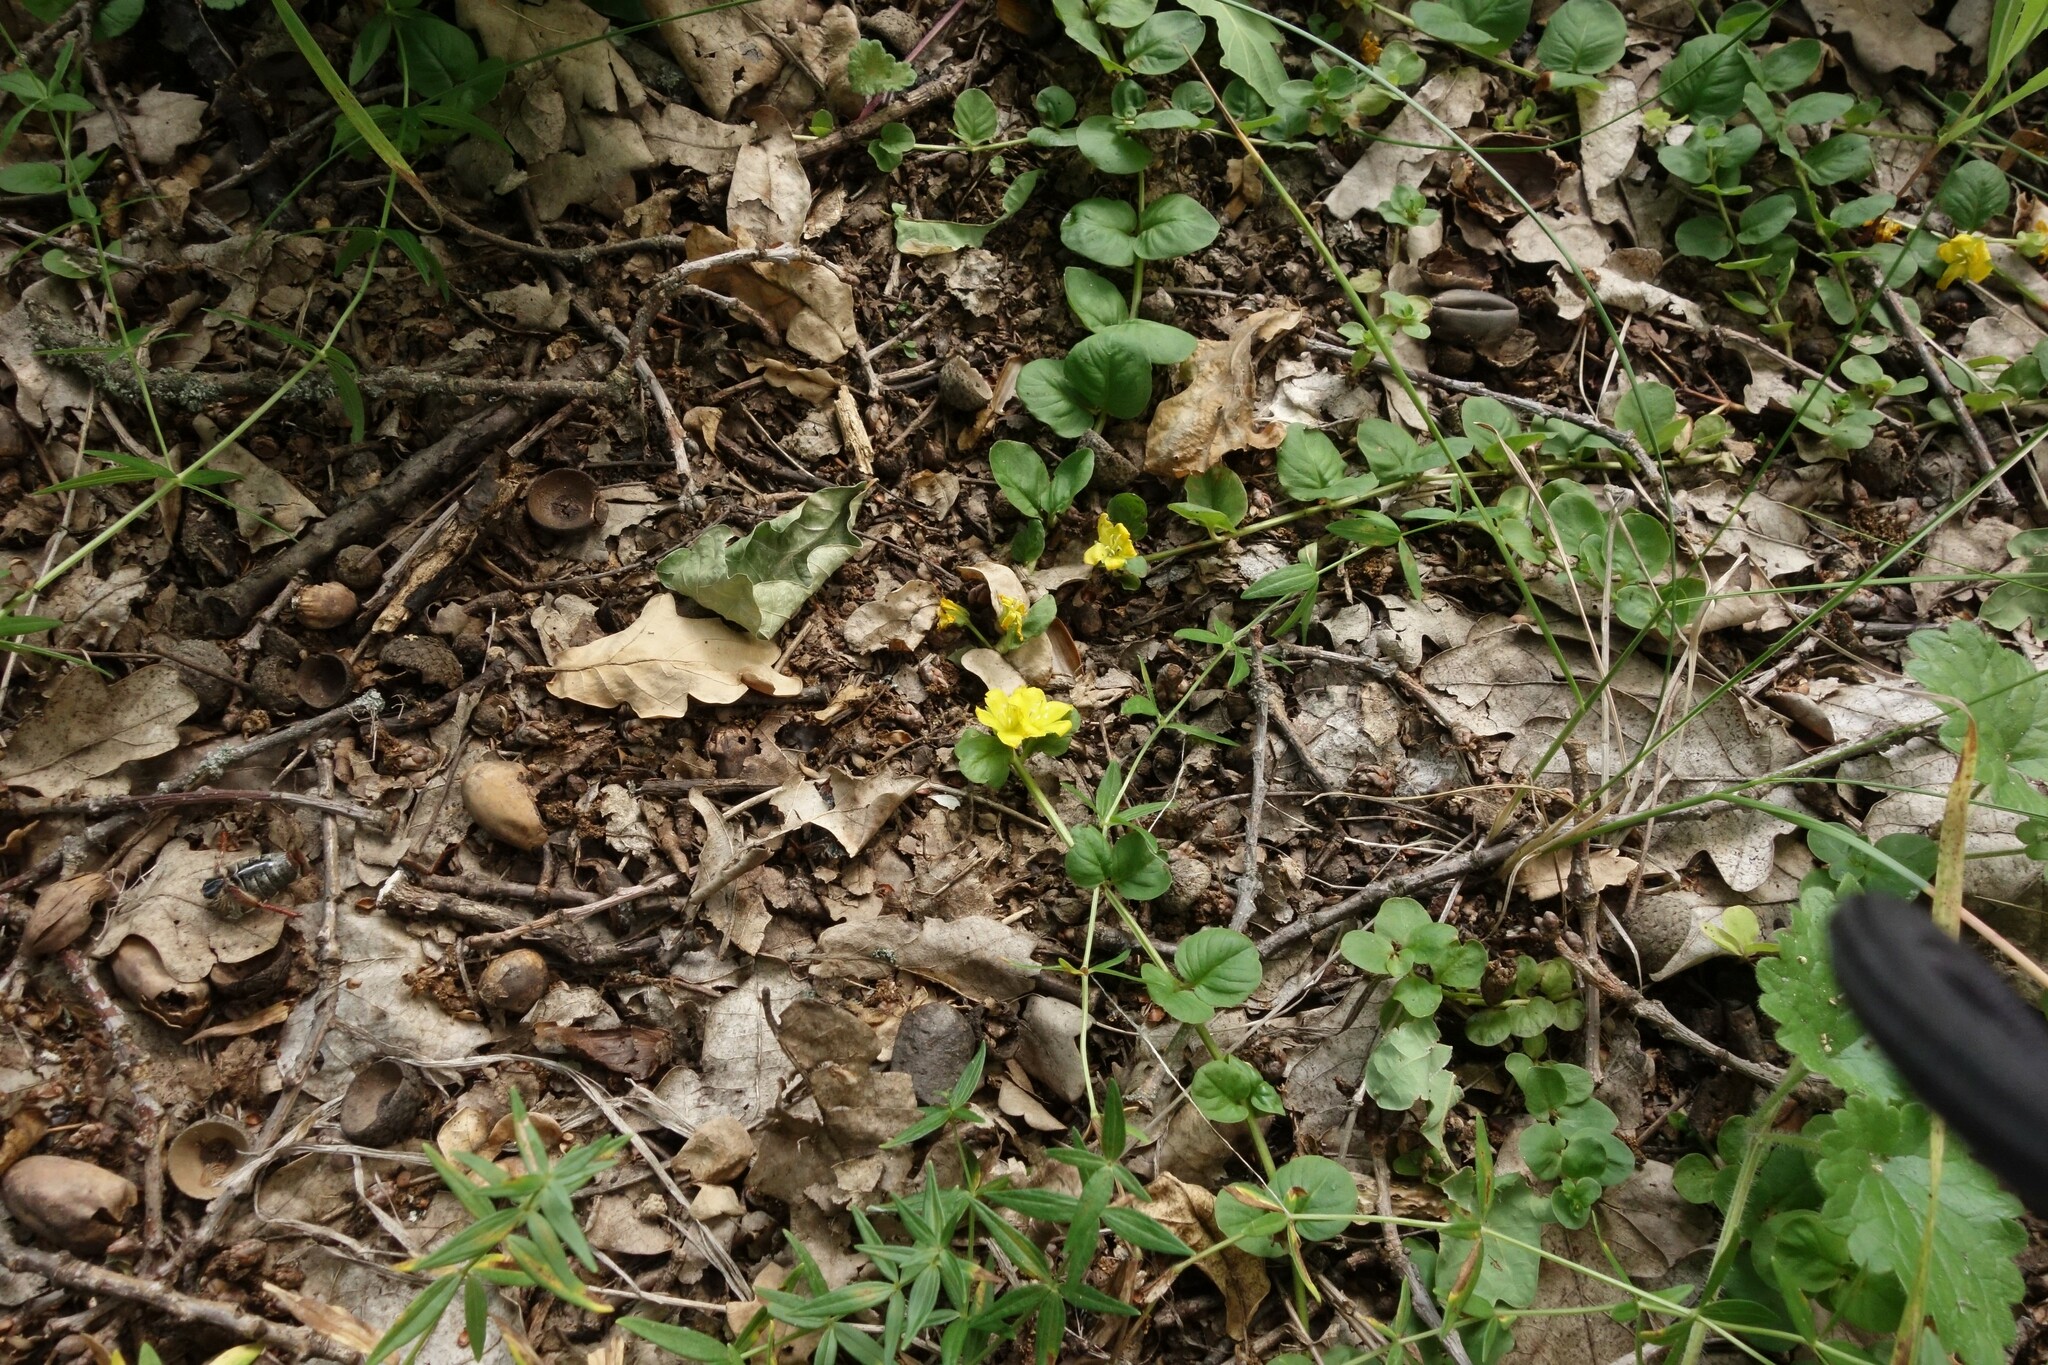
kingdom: Plantae
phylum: Tracheophyta
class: Magnoliopsida
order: Ericales
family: Primulaceae
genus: Lysimachia
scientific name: Lysimachia nummularia
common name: Moneywort
